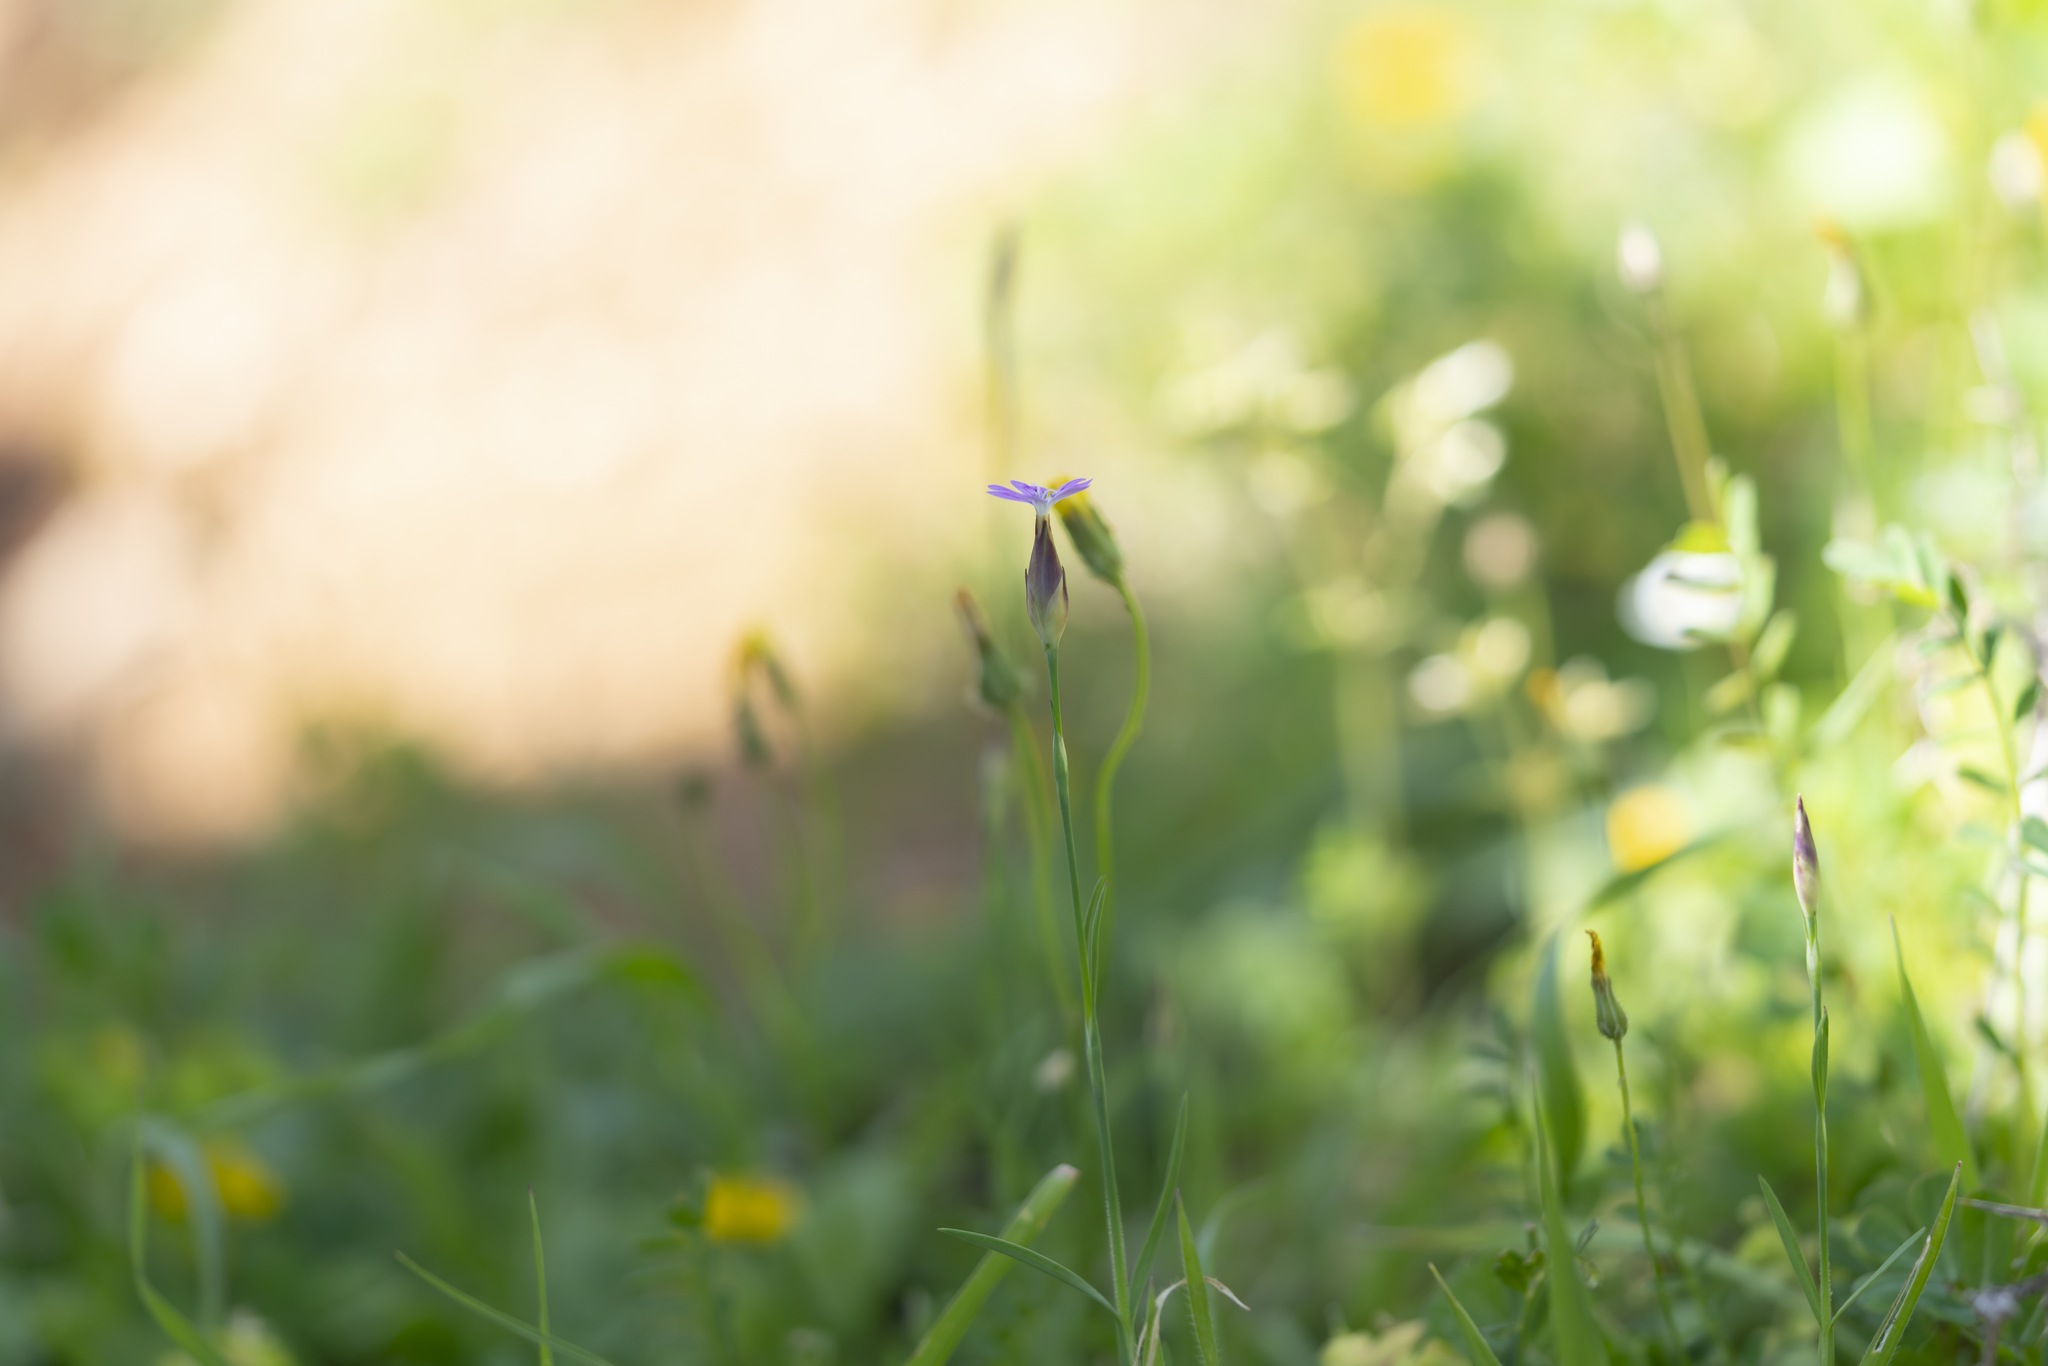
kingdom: Plantae
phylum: Tracheophyta
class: Magnoliopsida
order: Caryophyllales
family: Caryophyllaceae
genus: Petrorhagia
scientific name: Petrorhagia dubia
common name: Hairypink
